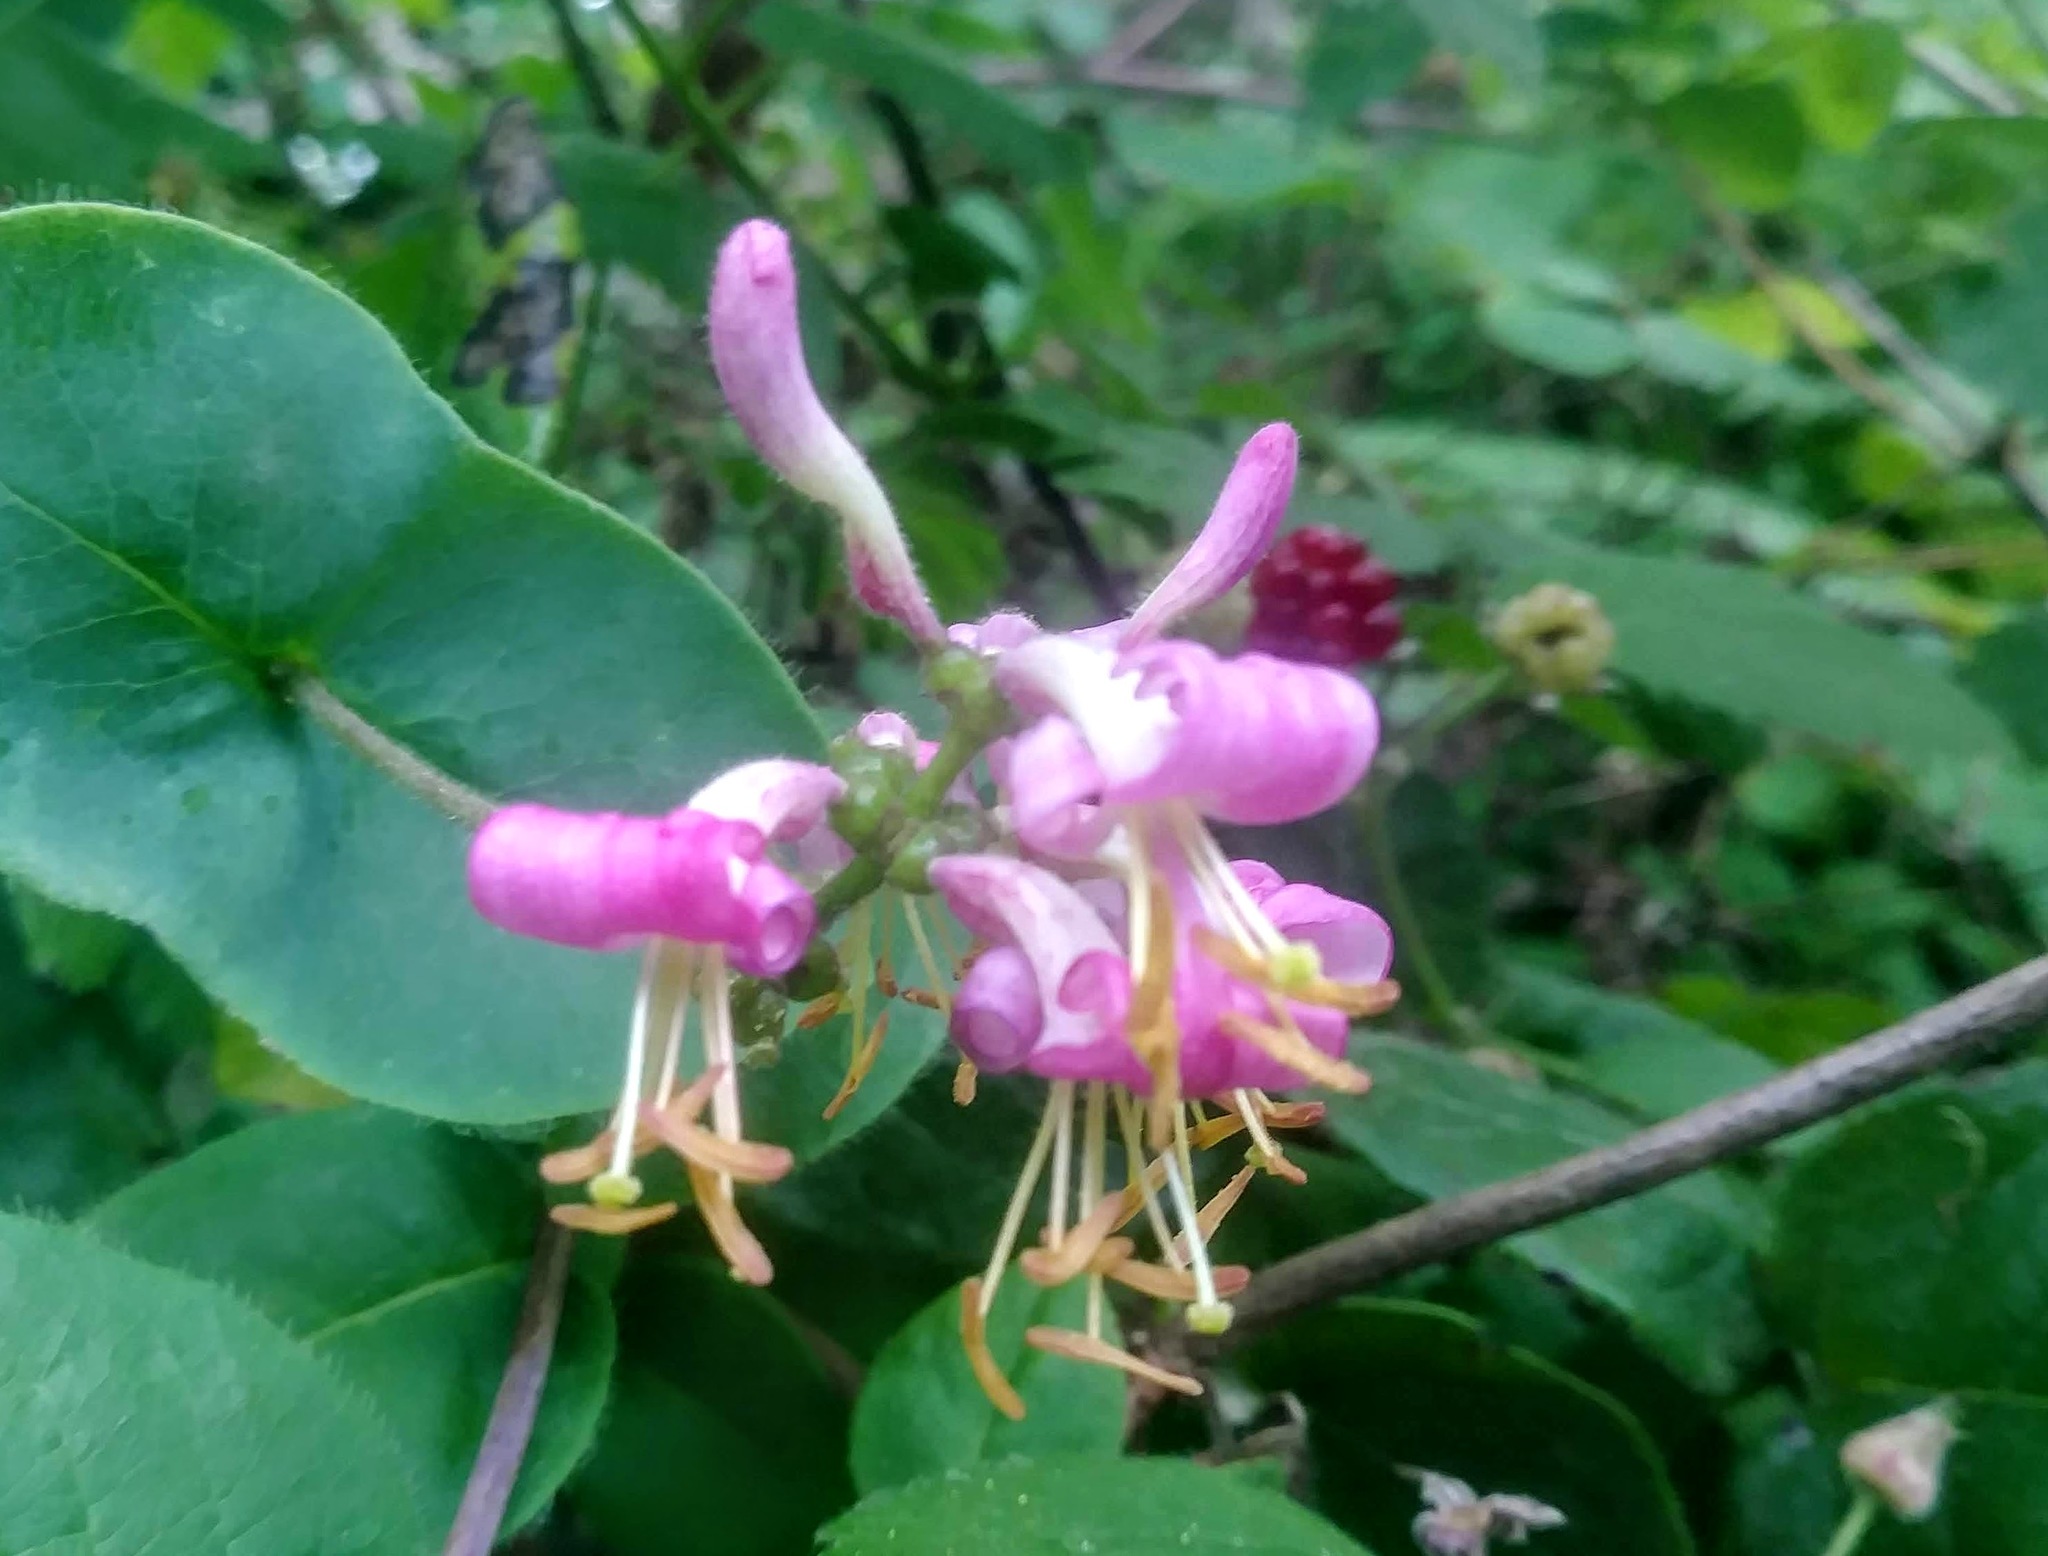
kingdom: Plantae
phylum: Tracheophyta
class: Magnoliopsida
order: Dipsacales
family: Caprifoliaceae
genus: Lonicera
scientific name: Lonicera hispidula
